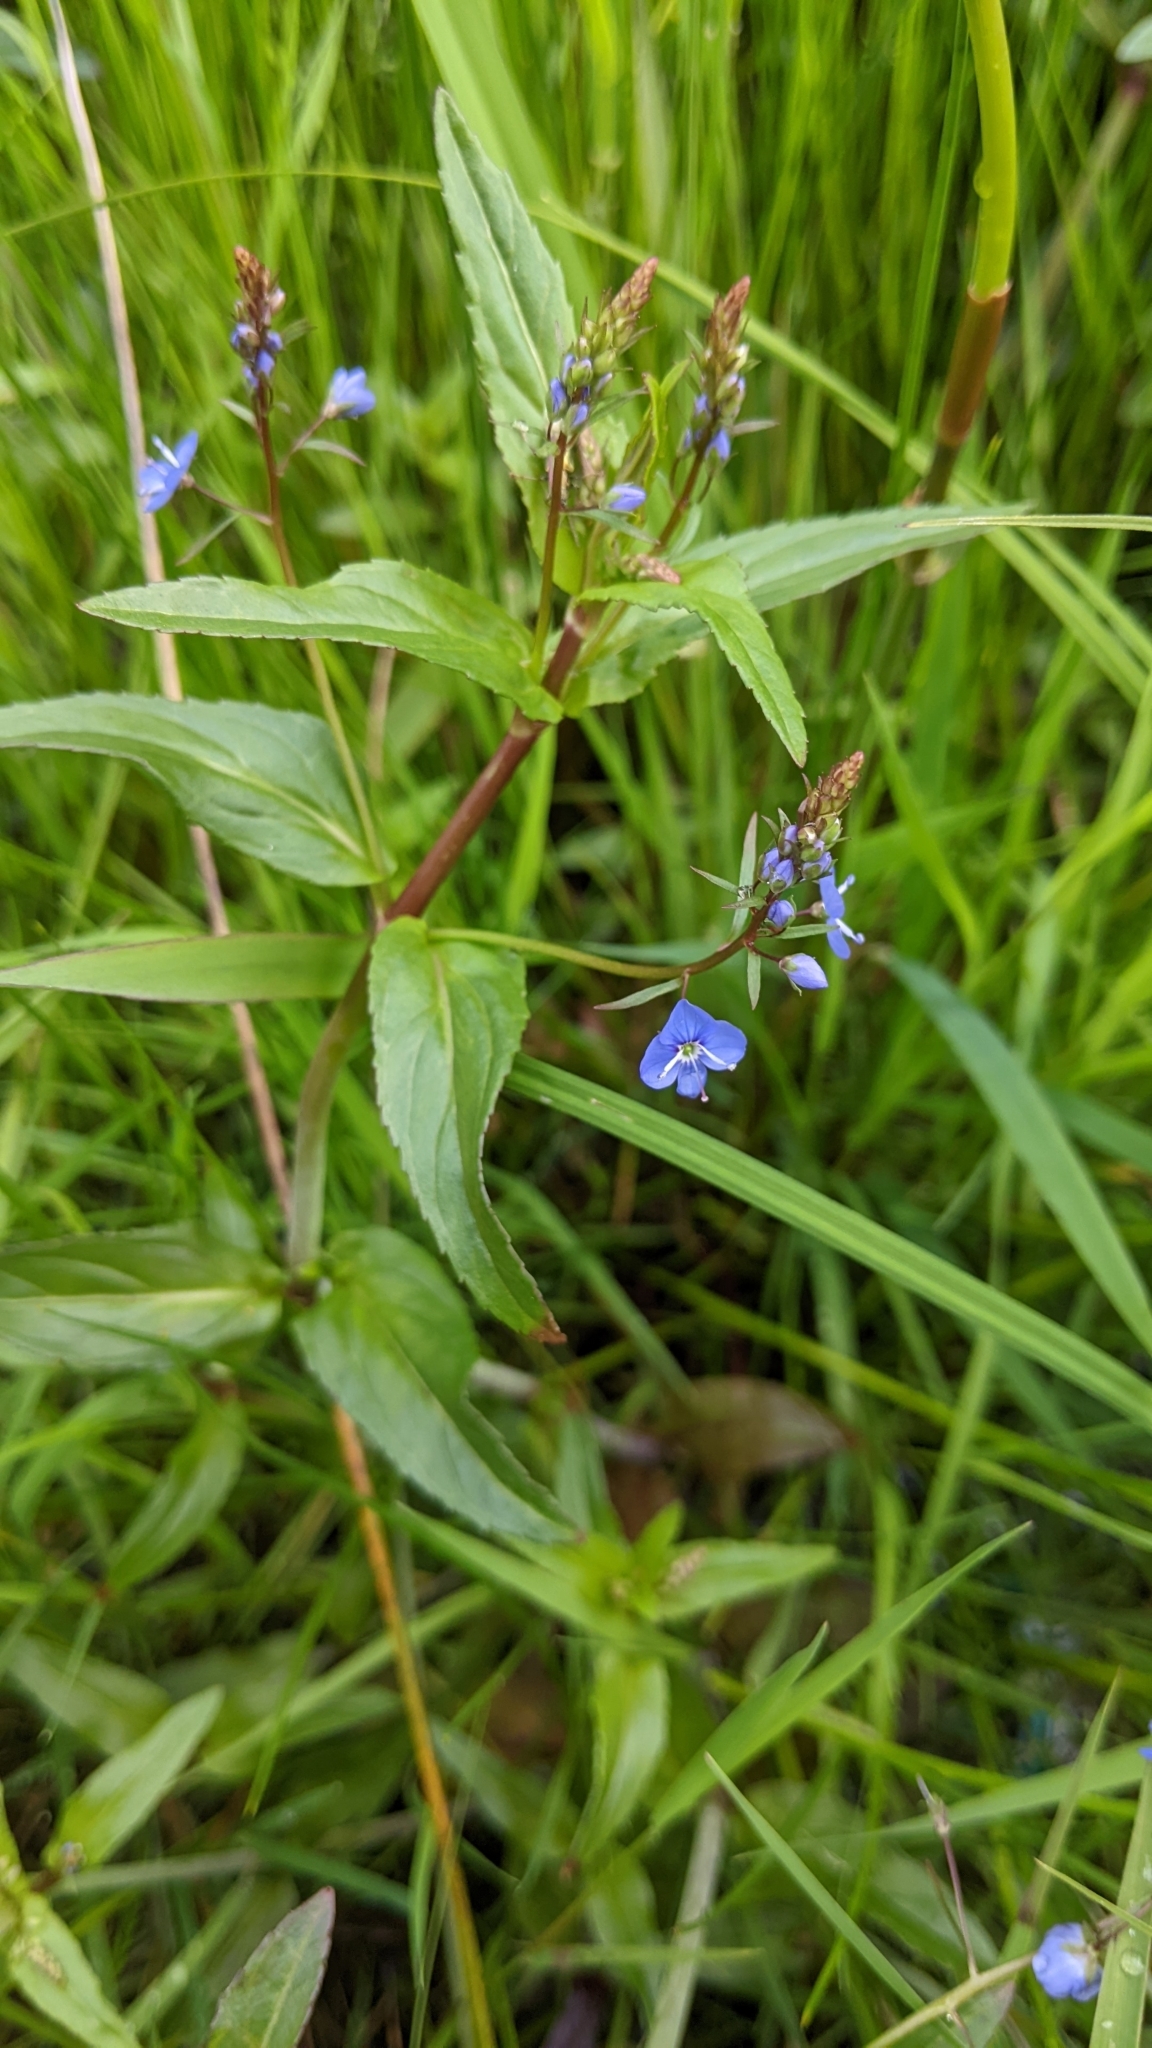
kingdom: Plantae
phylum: Tracheophyta
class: Magnoliopsida
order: Lamiales
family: Plantaginaceae
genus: Veronica
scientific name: Veronica americana
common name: American brooklime
